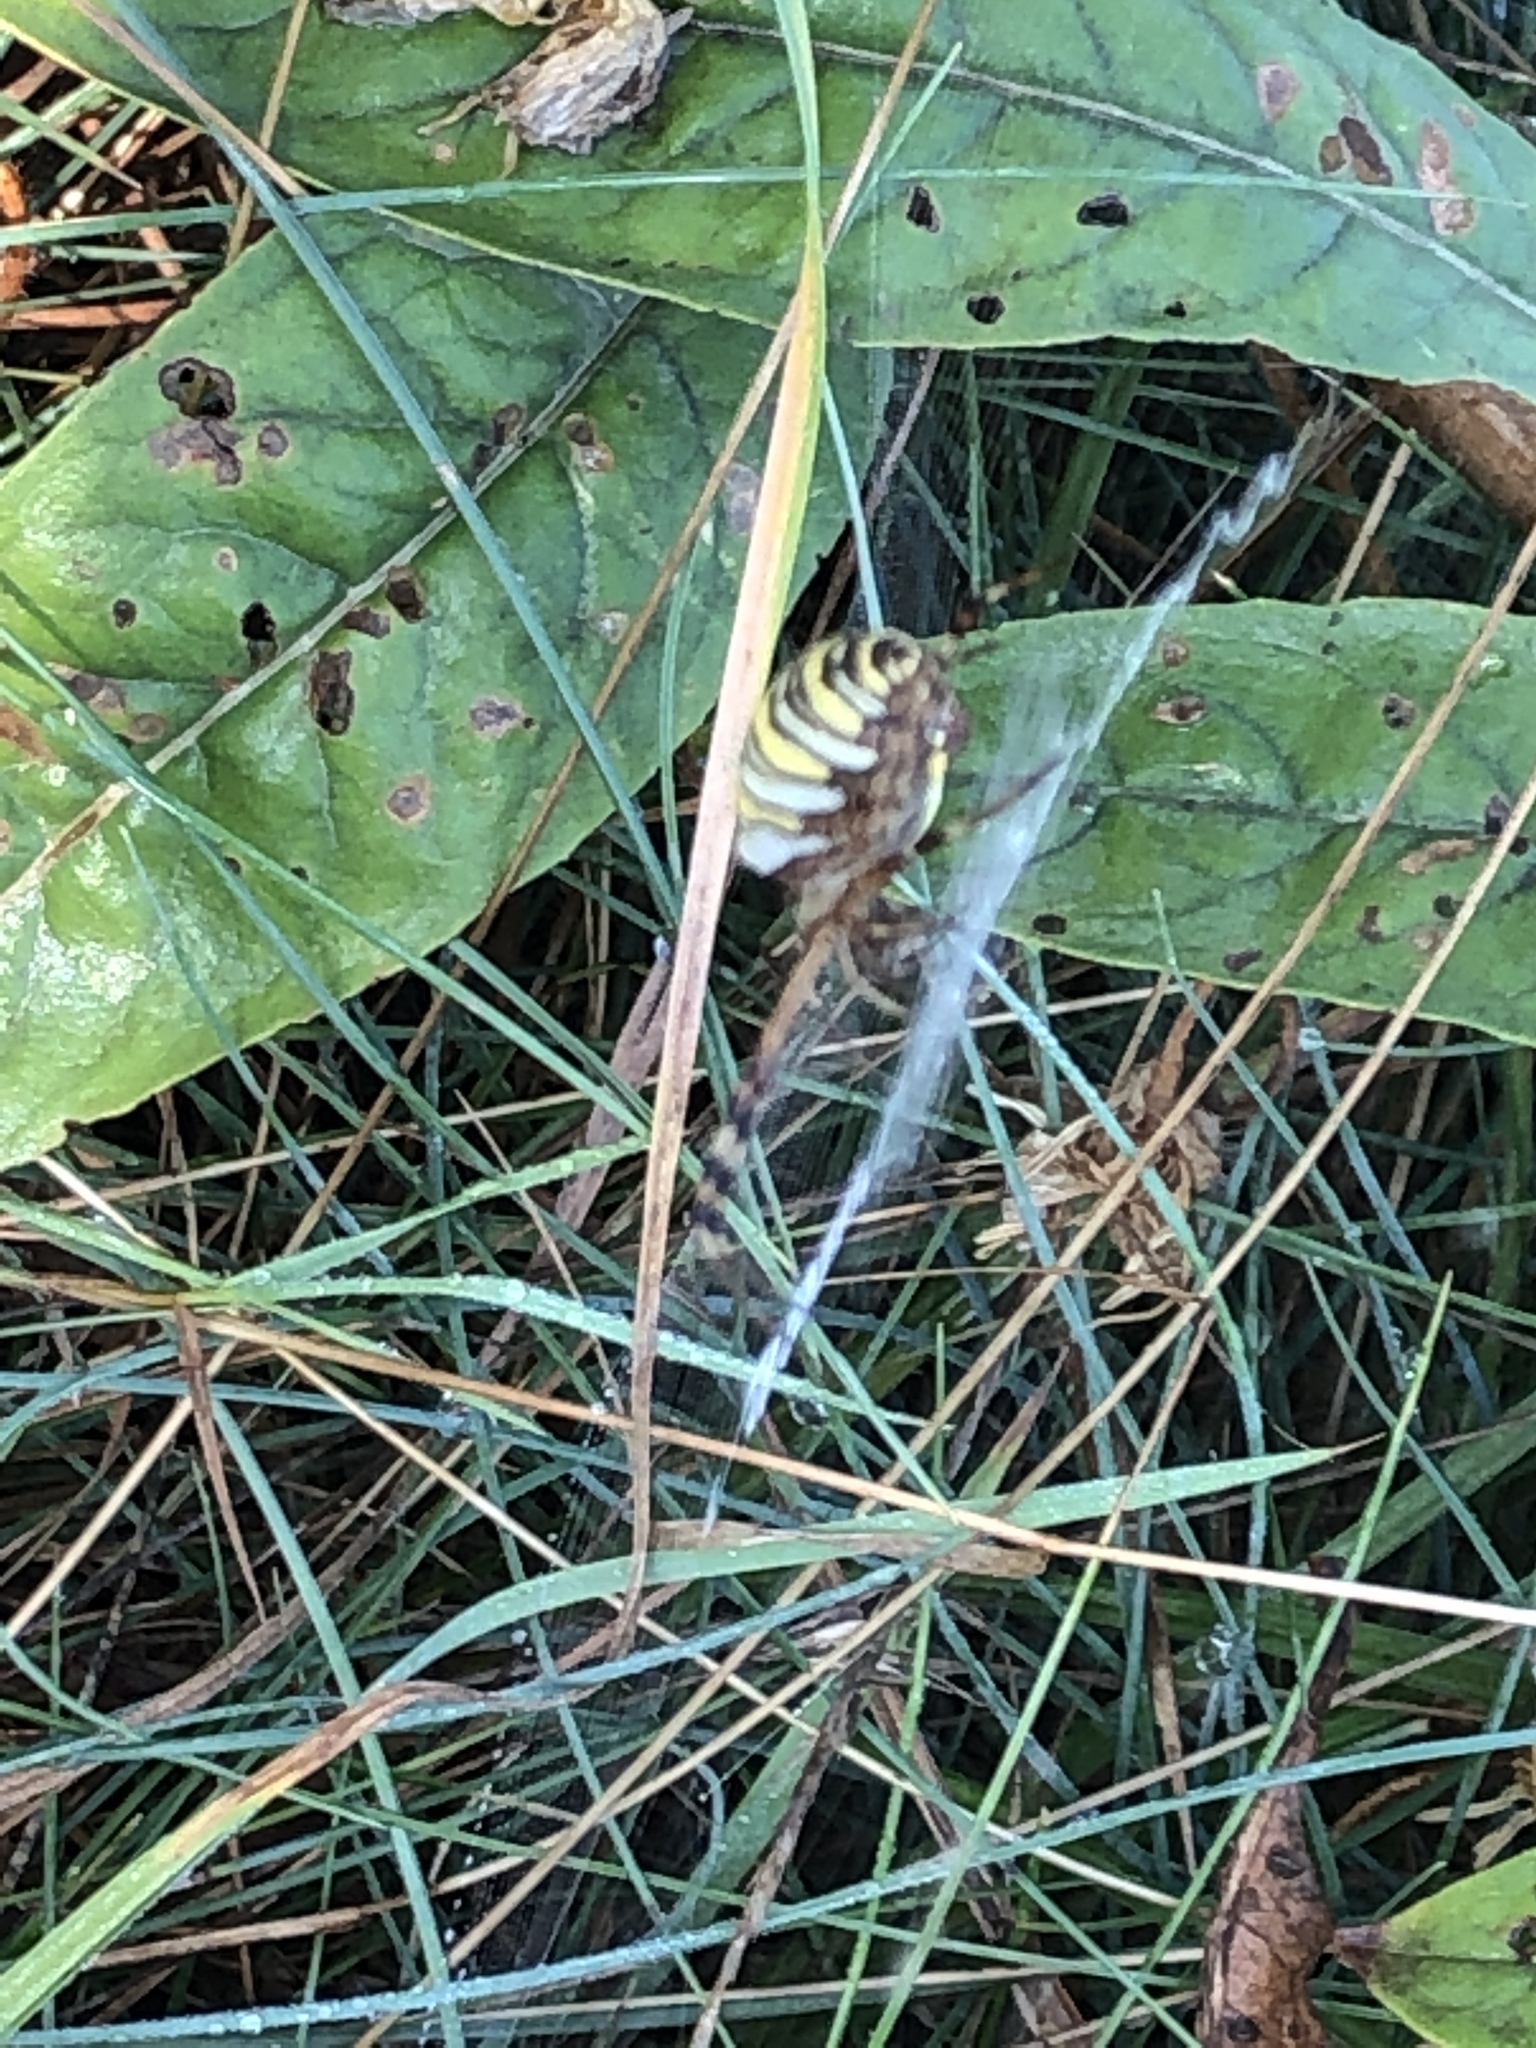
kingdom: Animalia
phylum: Arthropoda
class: Arachnida
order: Araneae
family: Araneidae
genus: Argiope
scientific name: Argiope bruennichi
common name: Wasp spider
